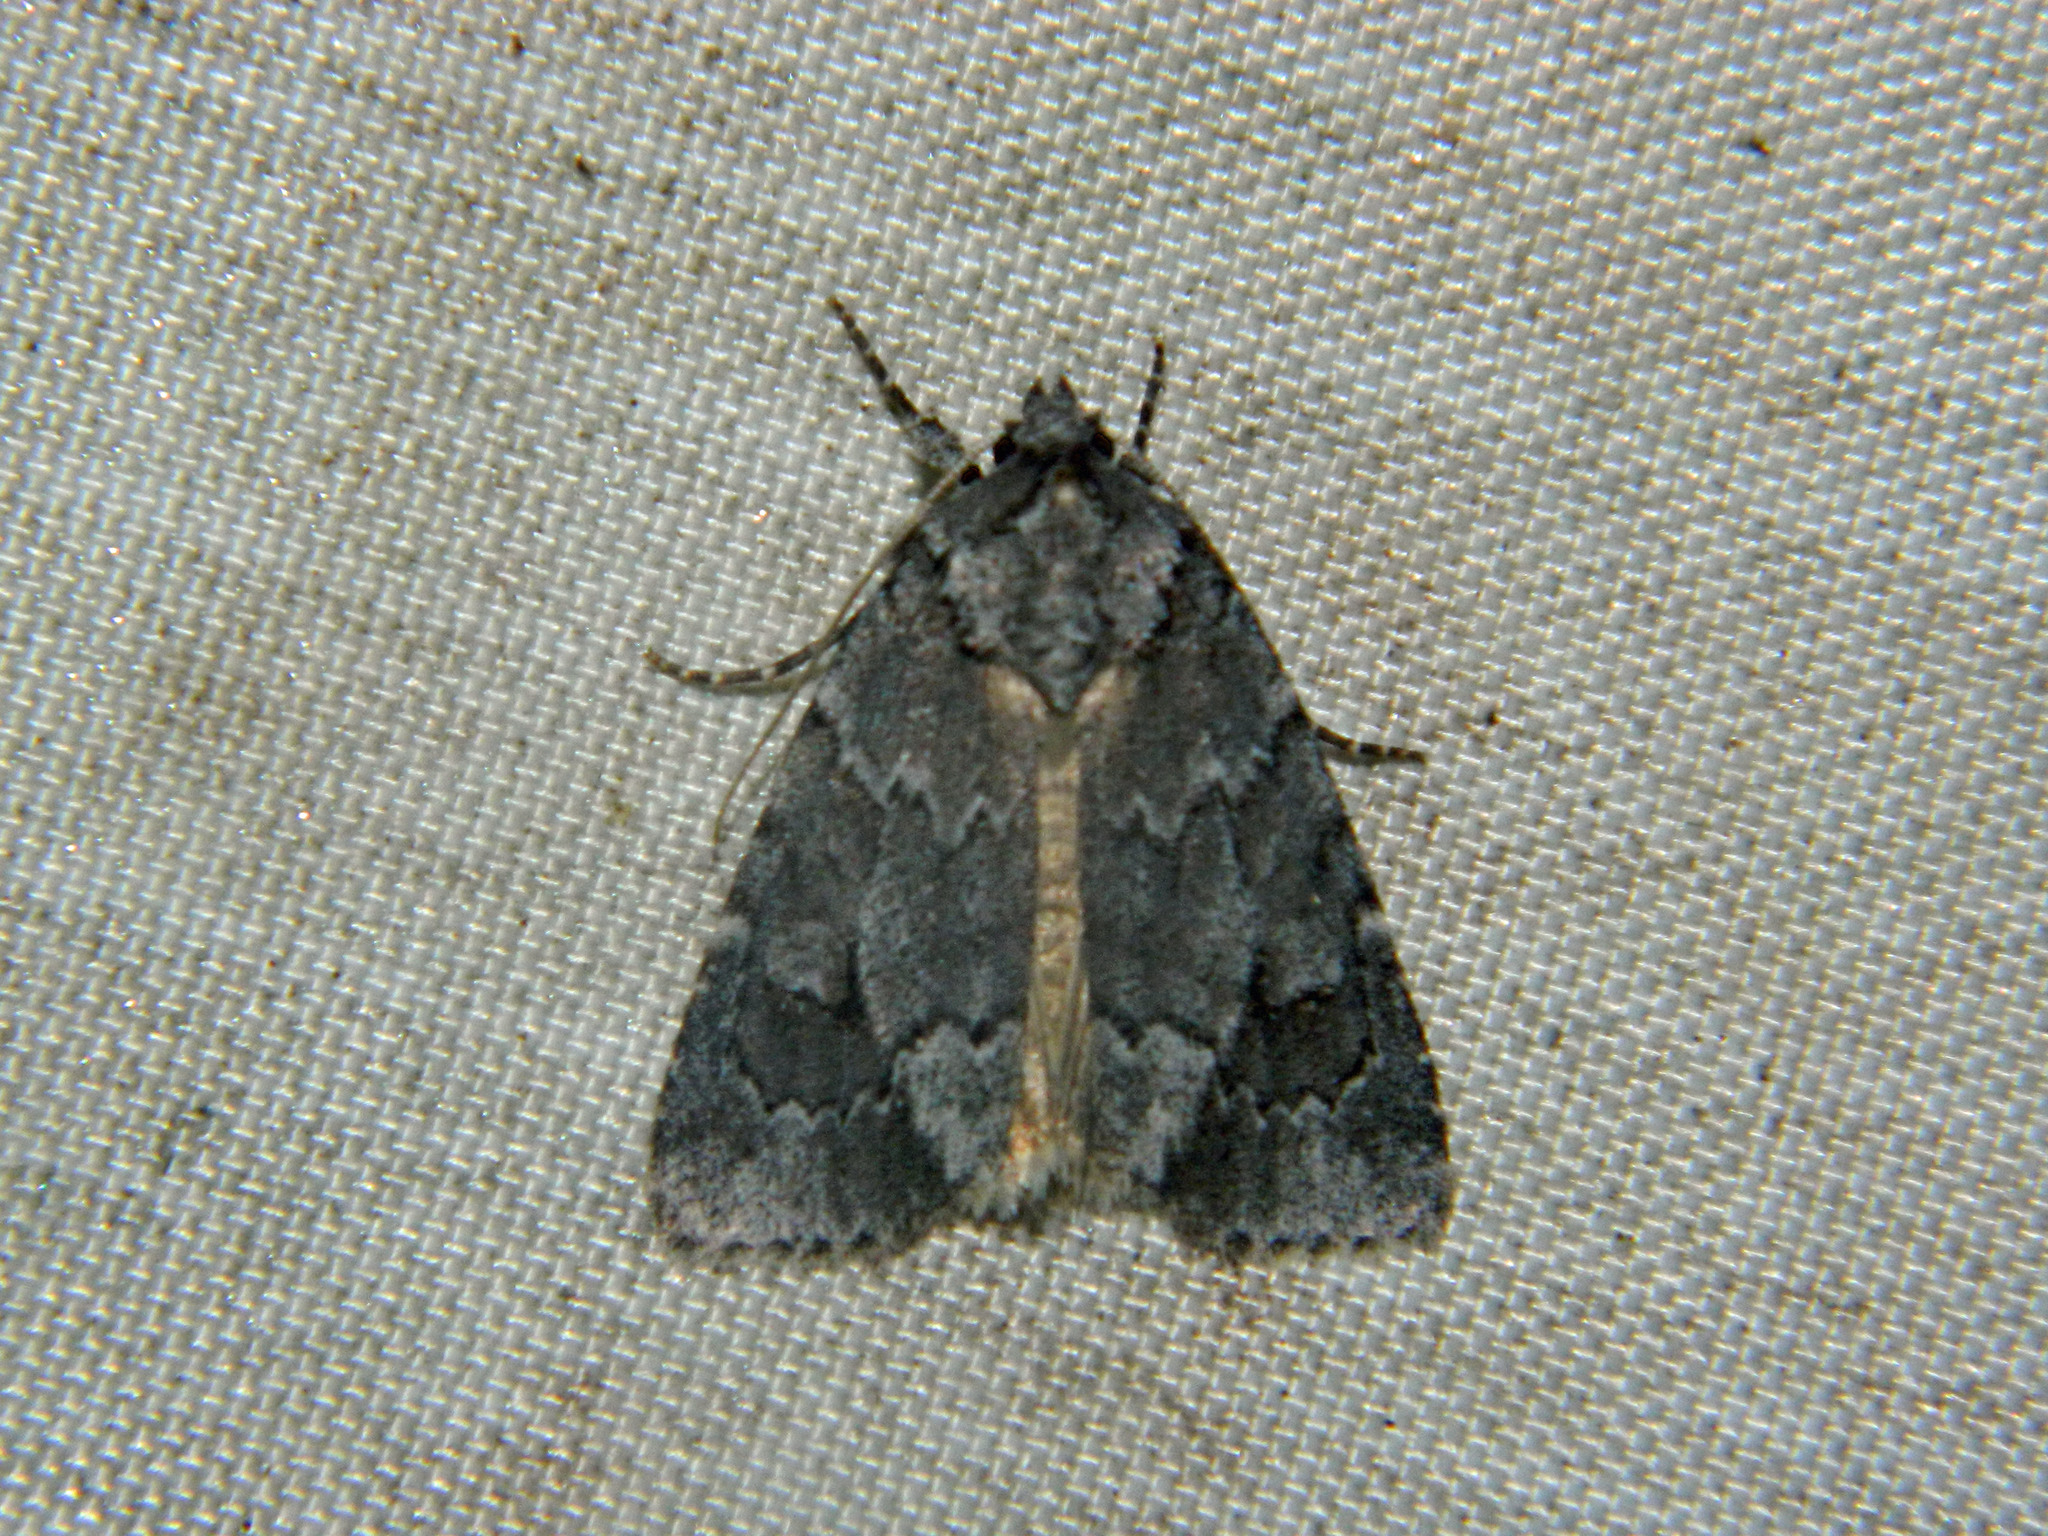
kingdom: Animalia
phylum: Arthropoda
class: Insecta
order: Lepidoptera
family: Noctuidae
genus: Sympistis
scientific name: Sympistis dentata
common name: Blueberry sallow
